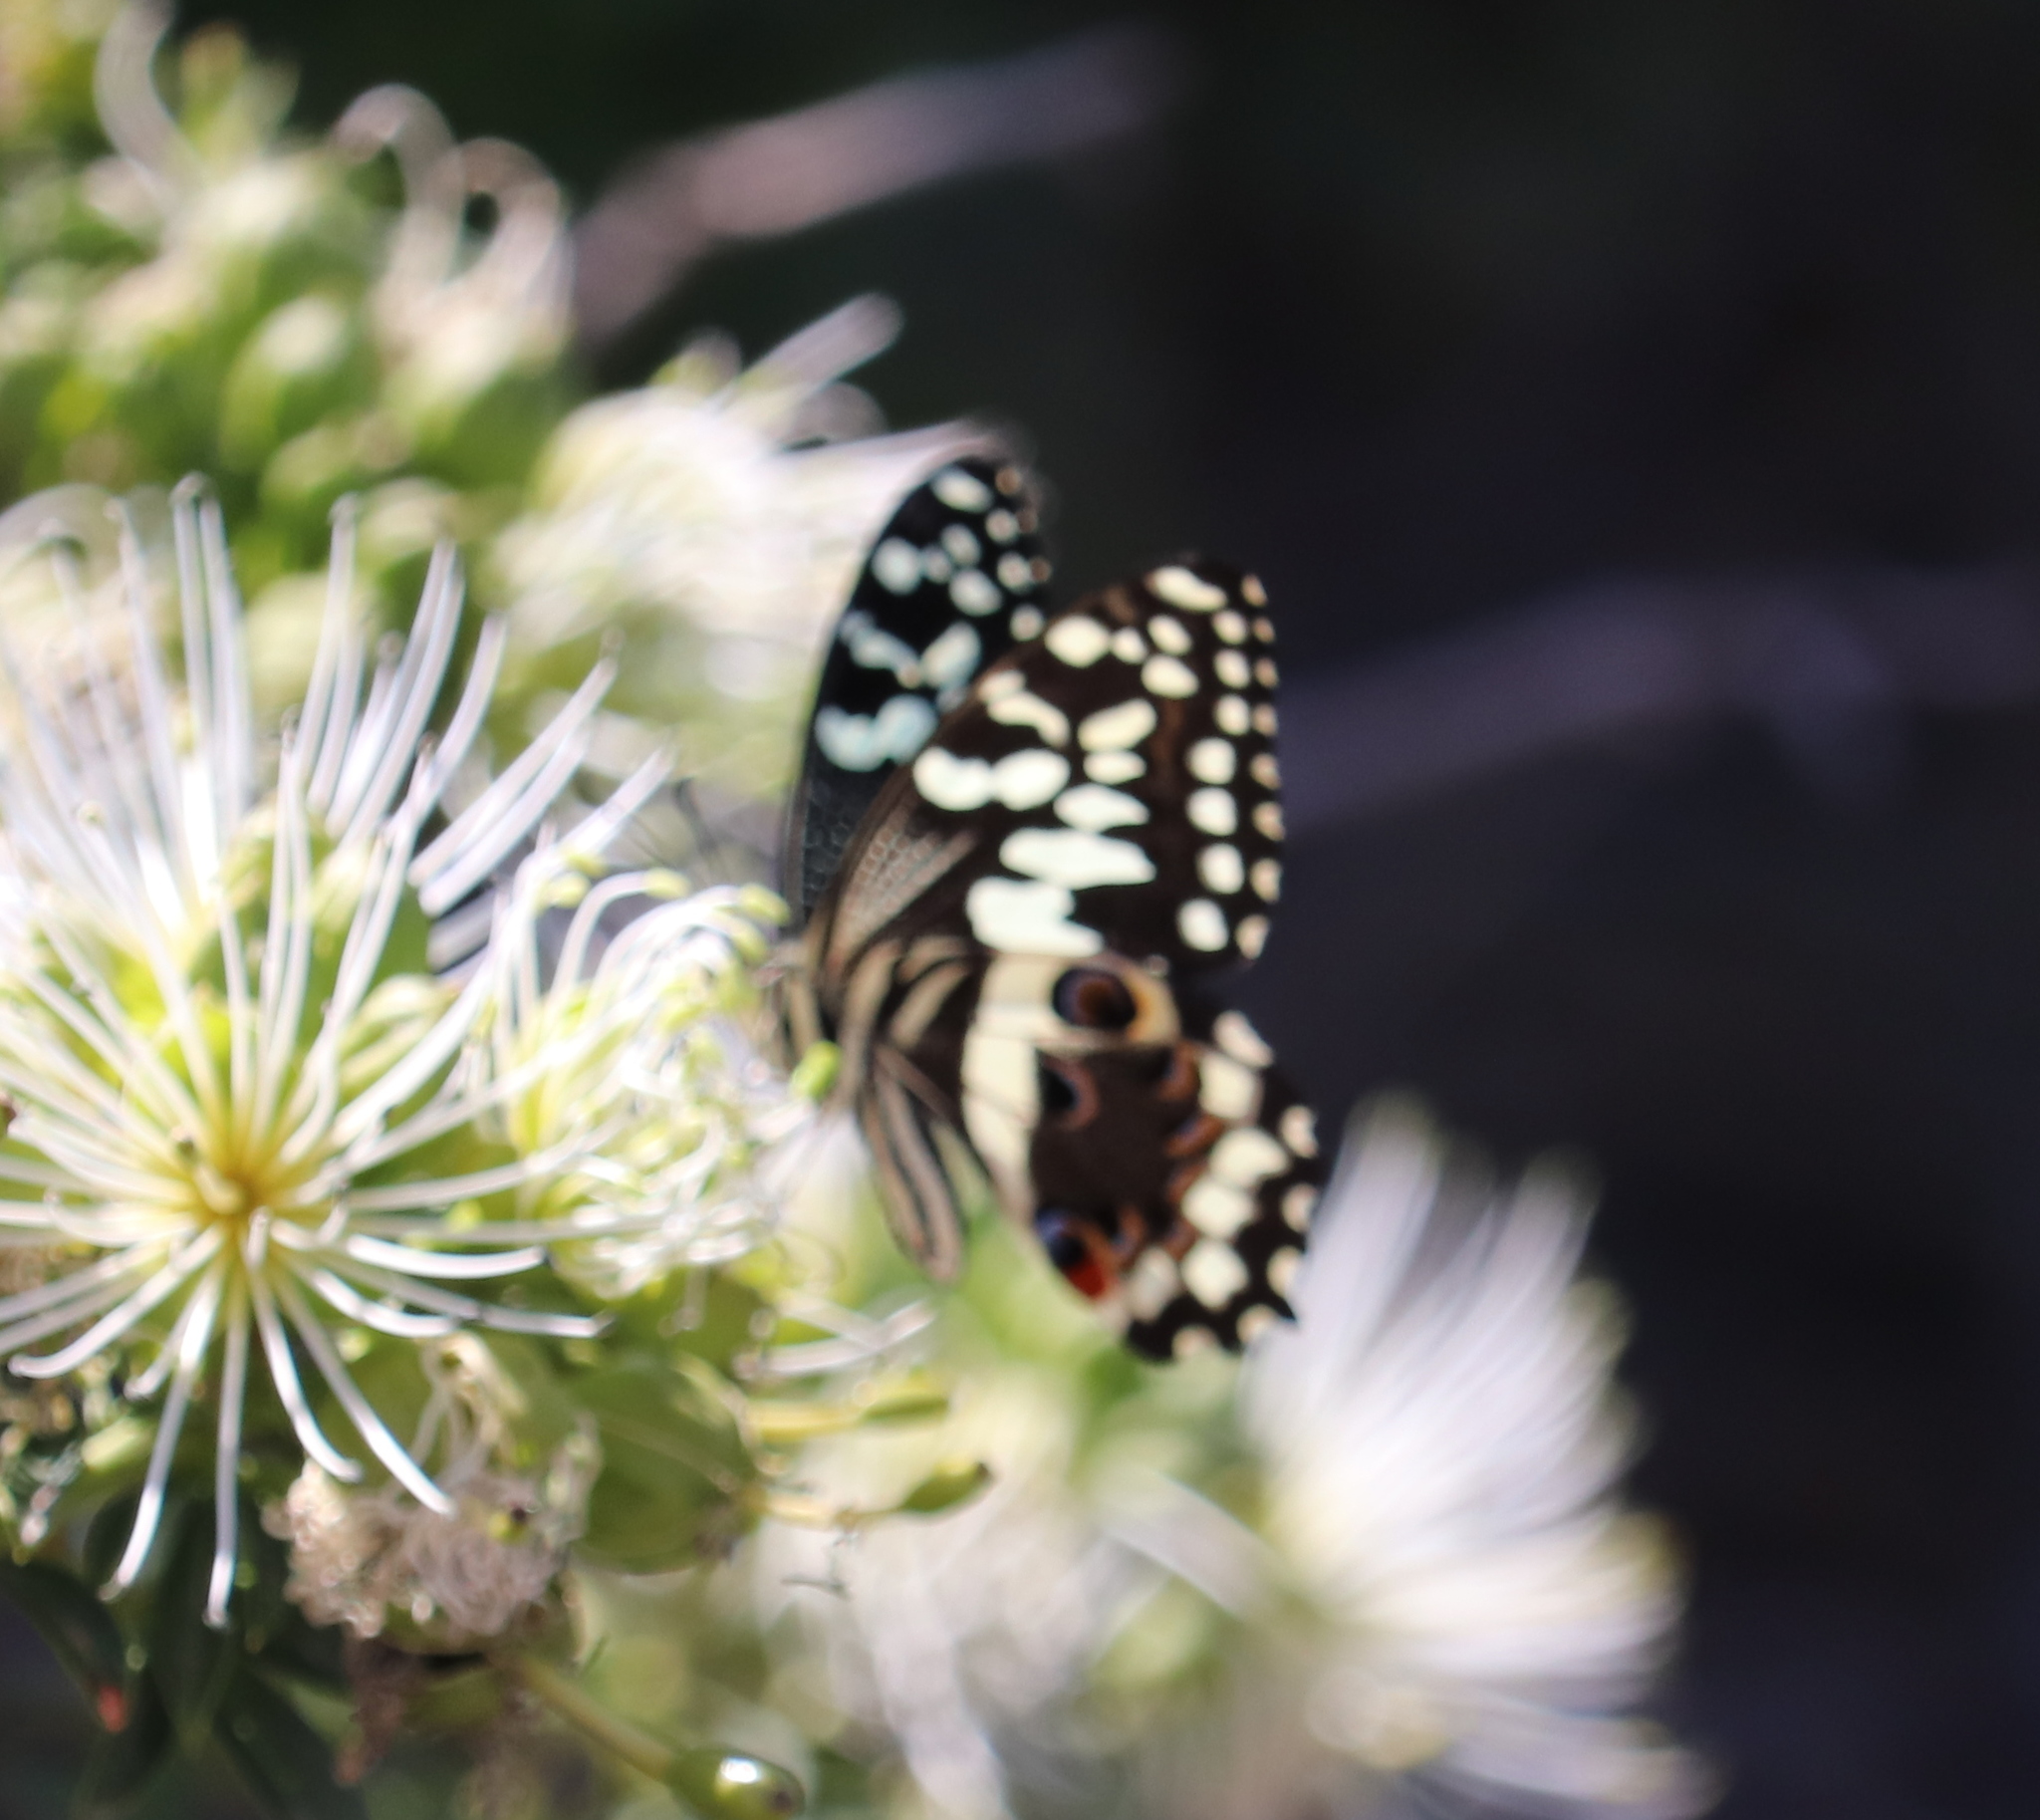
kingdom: Animalia
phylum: Arthropoda
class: Insecta
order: Lepidoptera
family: Papilionidae
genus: Papilio
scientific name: Papilio demodocus
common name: Christmas butterfly
